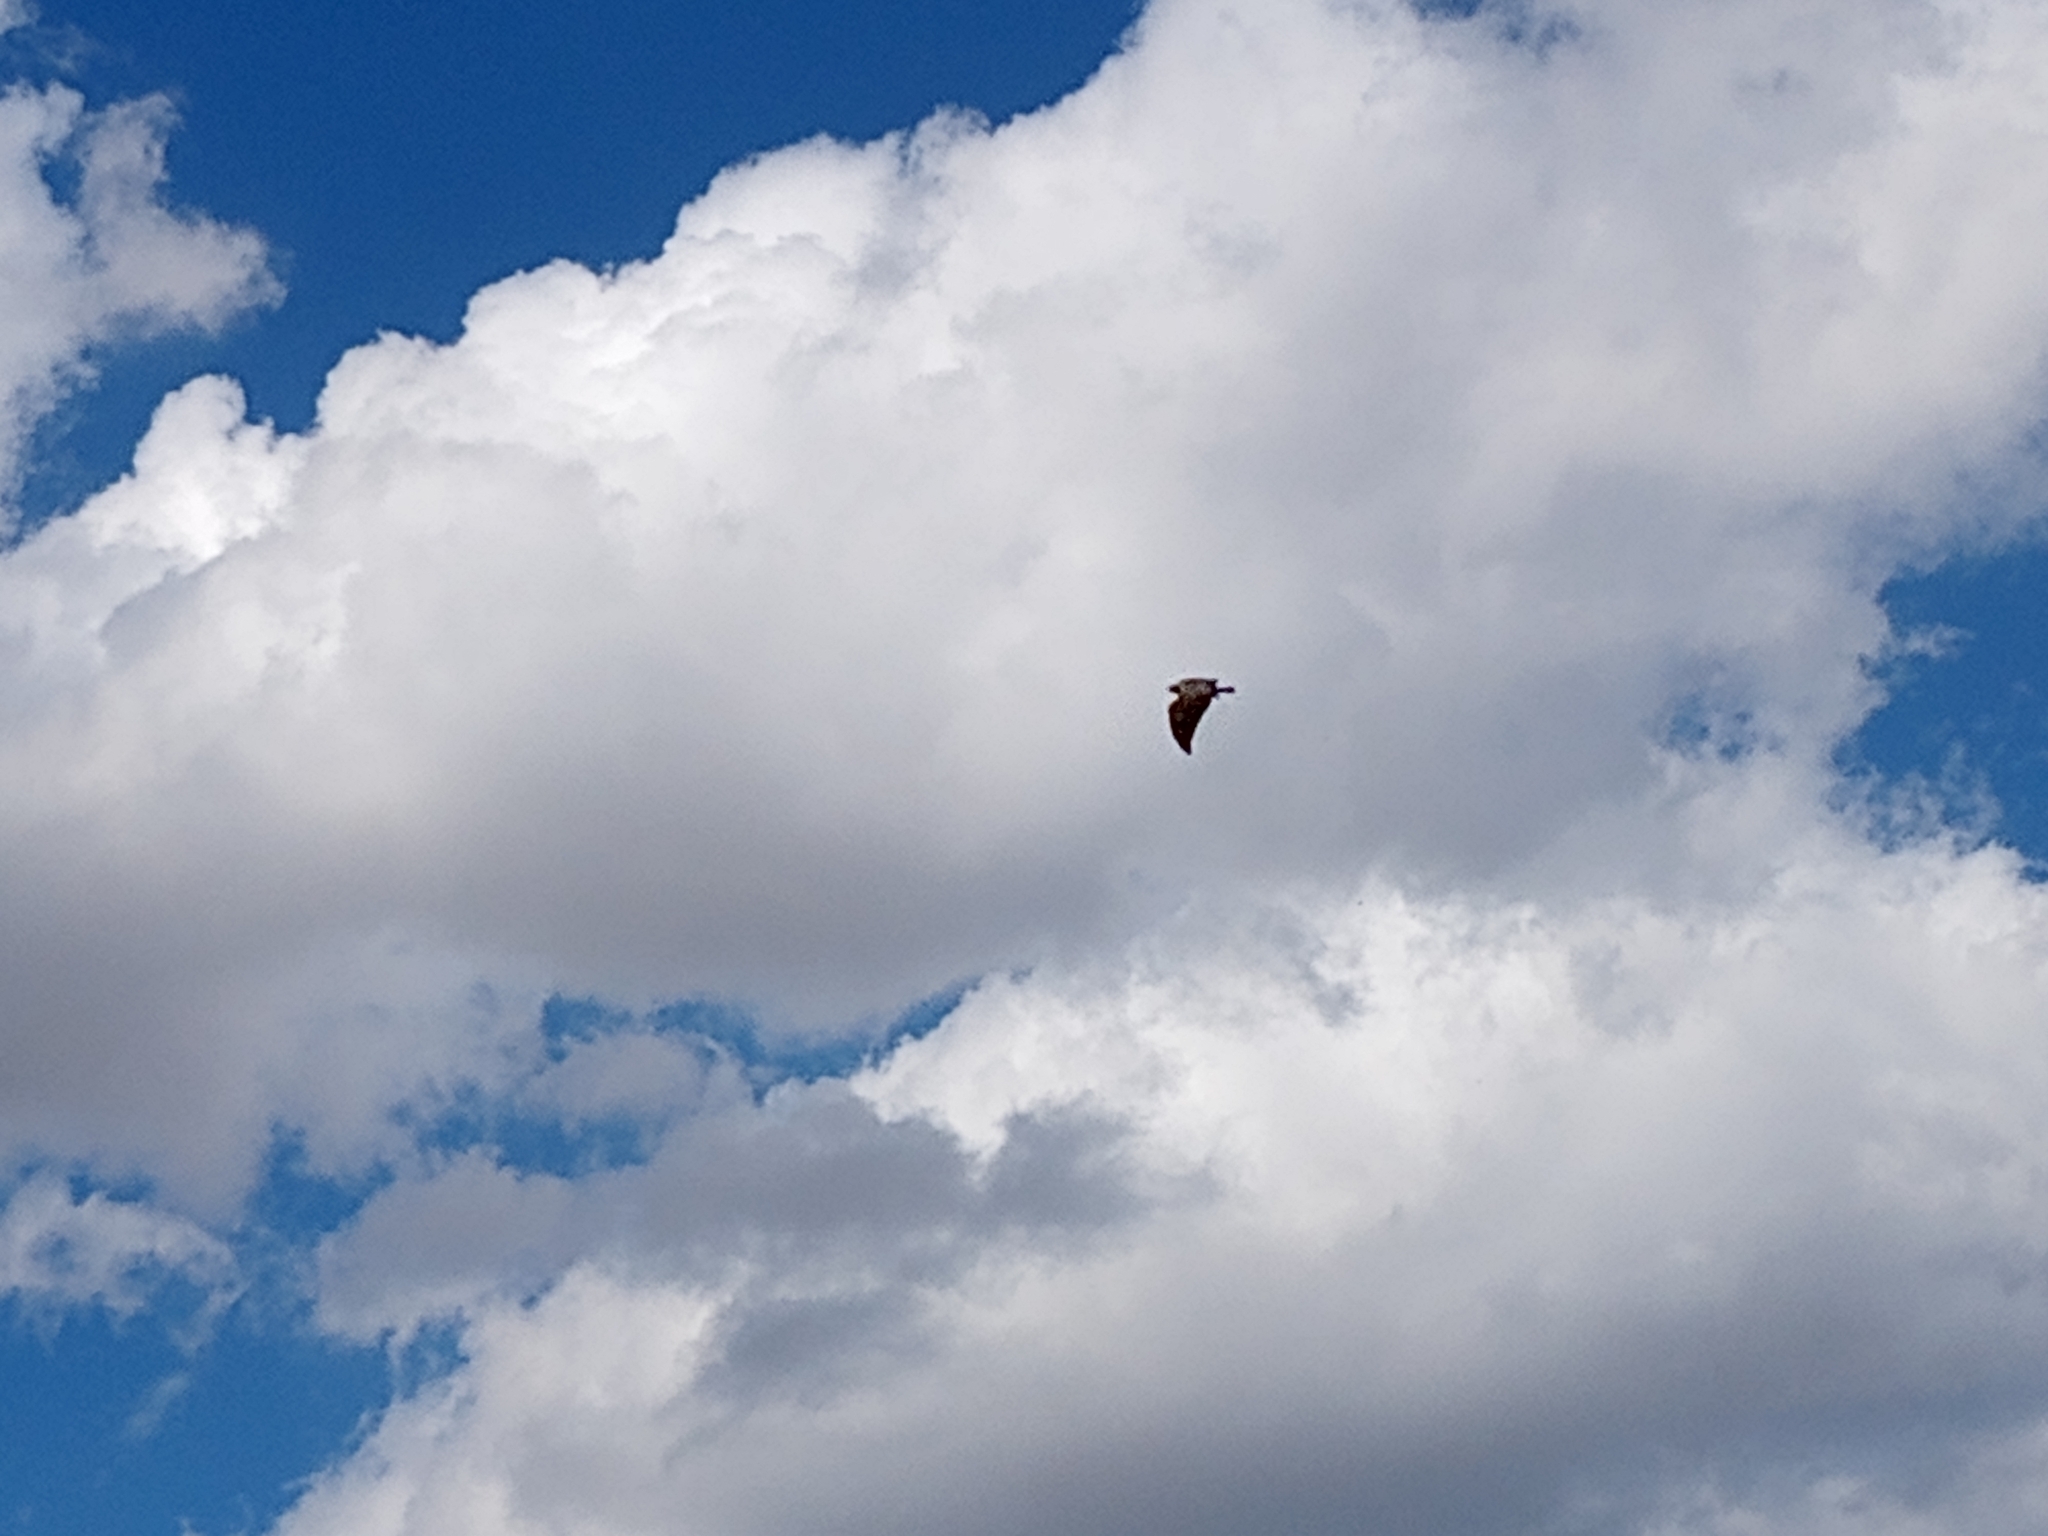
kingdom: Animalia
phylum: Chordata
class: Aves
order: Accipitriformes
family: Accipitridae
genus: Buteo
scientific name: Buteo albicaudatus
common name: White-tailed hawk
